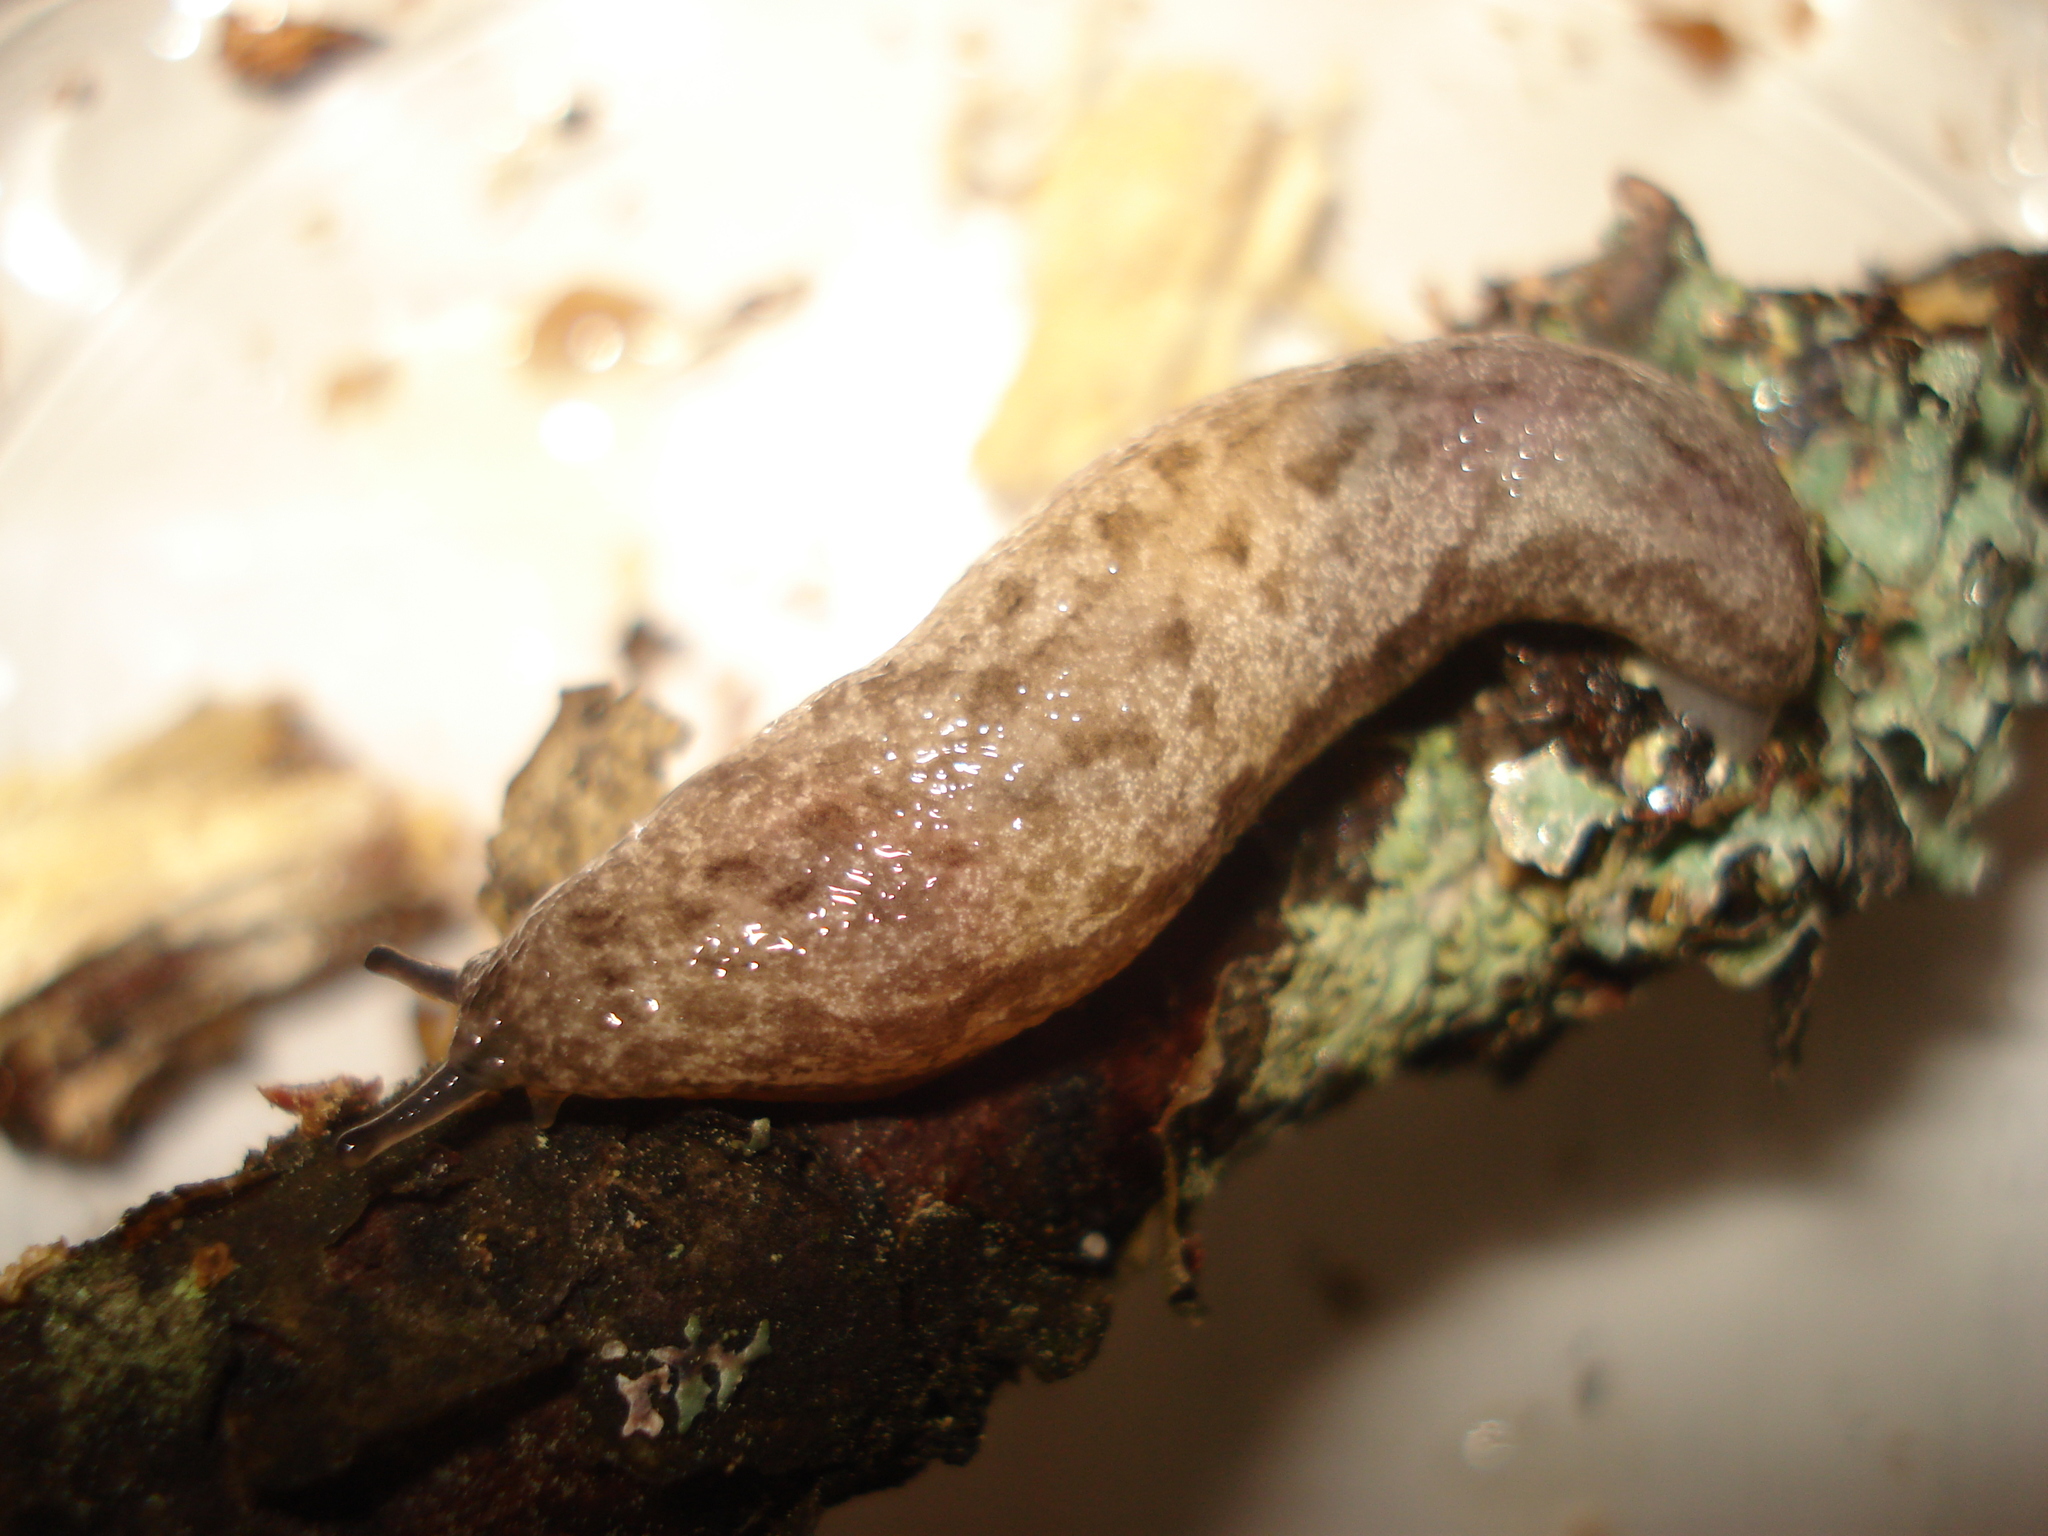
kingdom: Animalia
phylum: Mollusca
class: Gastropoda
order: Stylommatophora
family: Philomycidae
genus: Megapallifera
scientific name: Megapallifera mutabilis
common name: Changeable mantleslug
